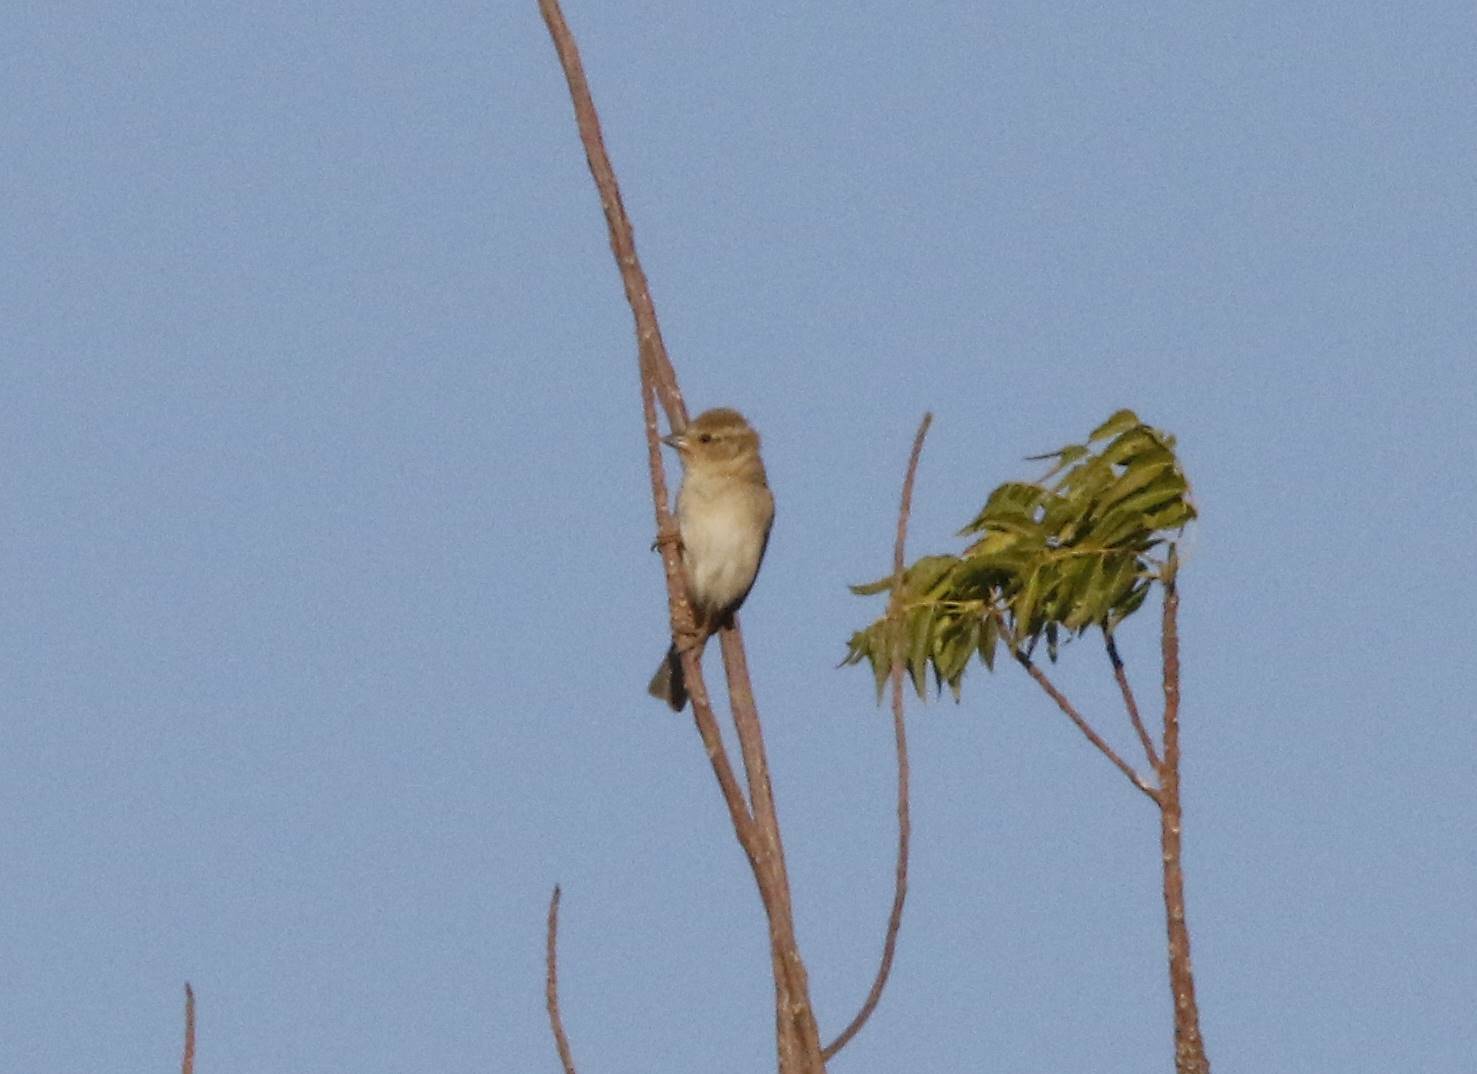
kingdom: Animalia
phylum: Chordata
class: Aves
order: Passeriformes
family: Passeridae
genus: Passer
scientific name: Passer domesticus
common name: House sparrow
